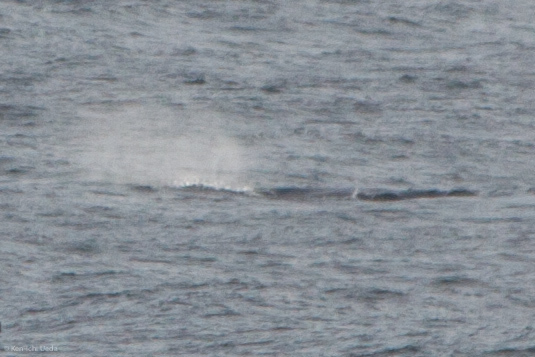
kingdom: Animalia
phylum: Chordata
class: Mammalia
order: Cetacea
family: Eschrichtiidae
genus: Eschrichtius
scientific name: Eschrichtius robustus
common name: Gray whale
